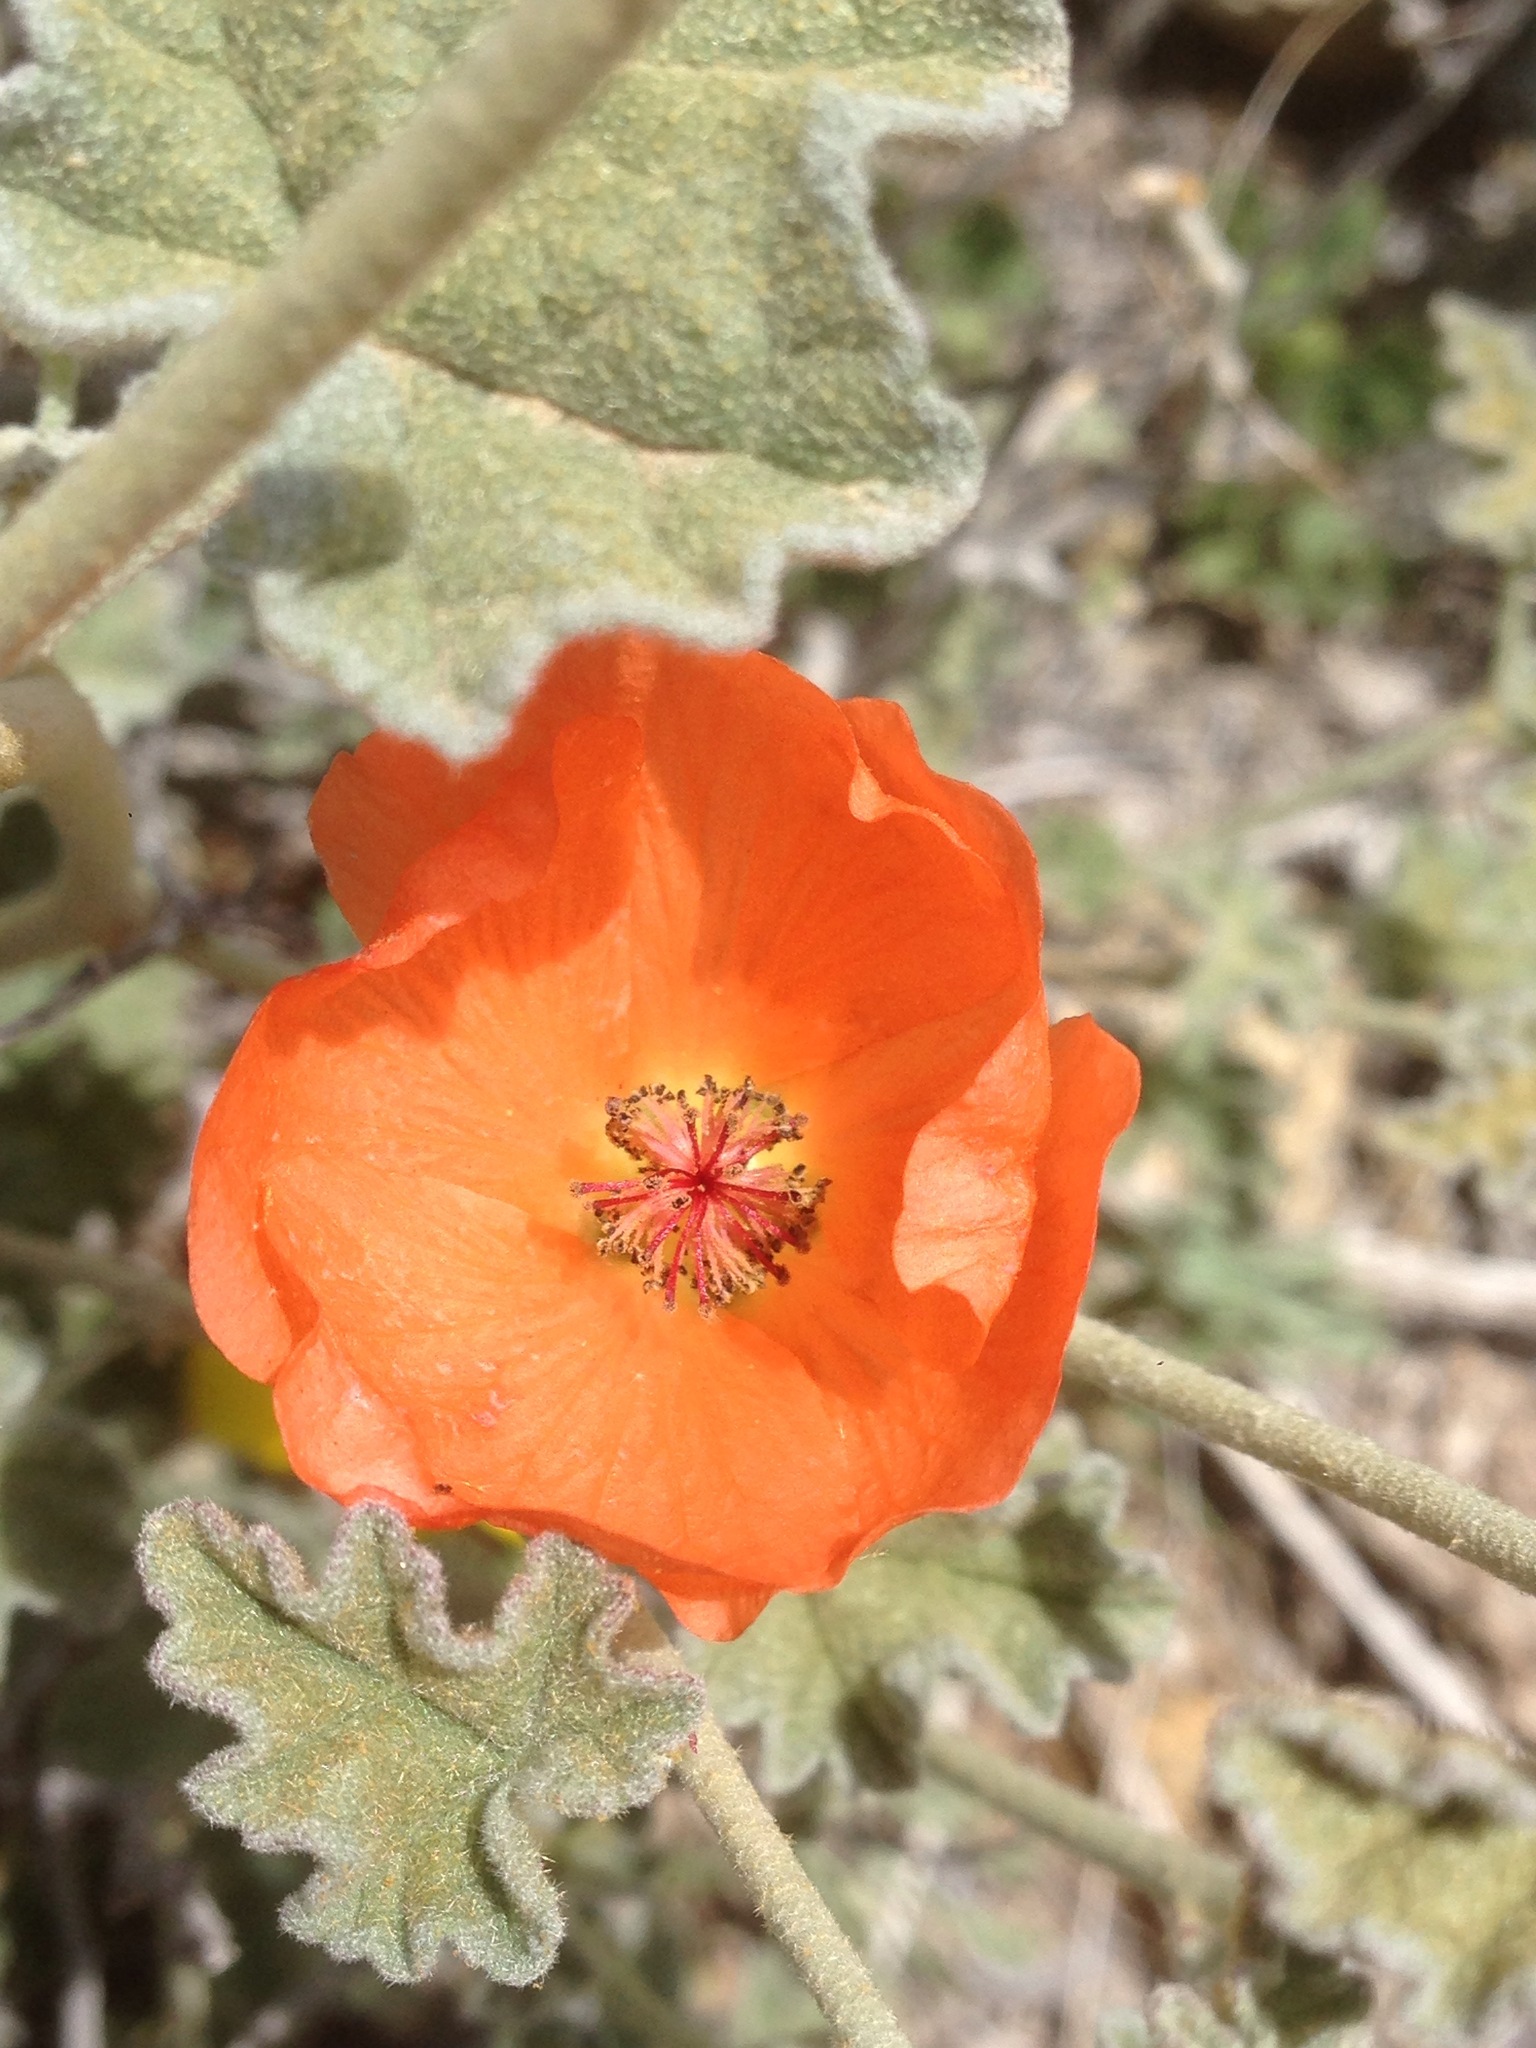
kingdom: Plantae
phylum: Tracheophyta
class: Magnoliopsida
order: Malvales
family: Malvaceae
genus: Sphaeralcea
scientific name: Sphaeralcea ambigua
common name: Apricot globe-mallow
